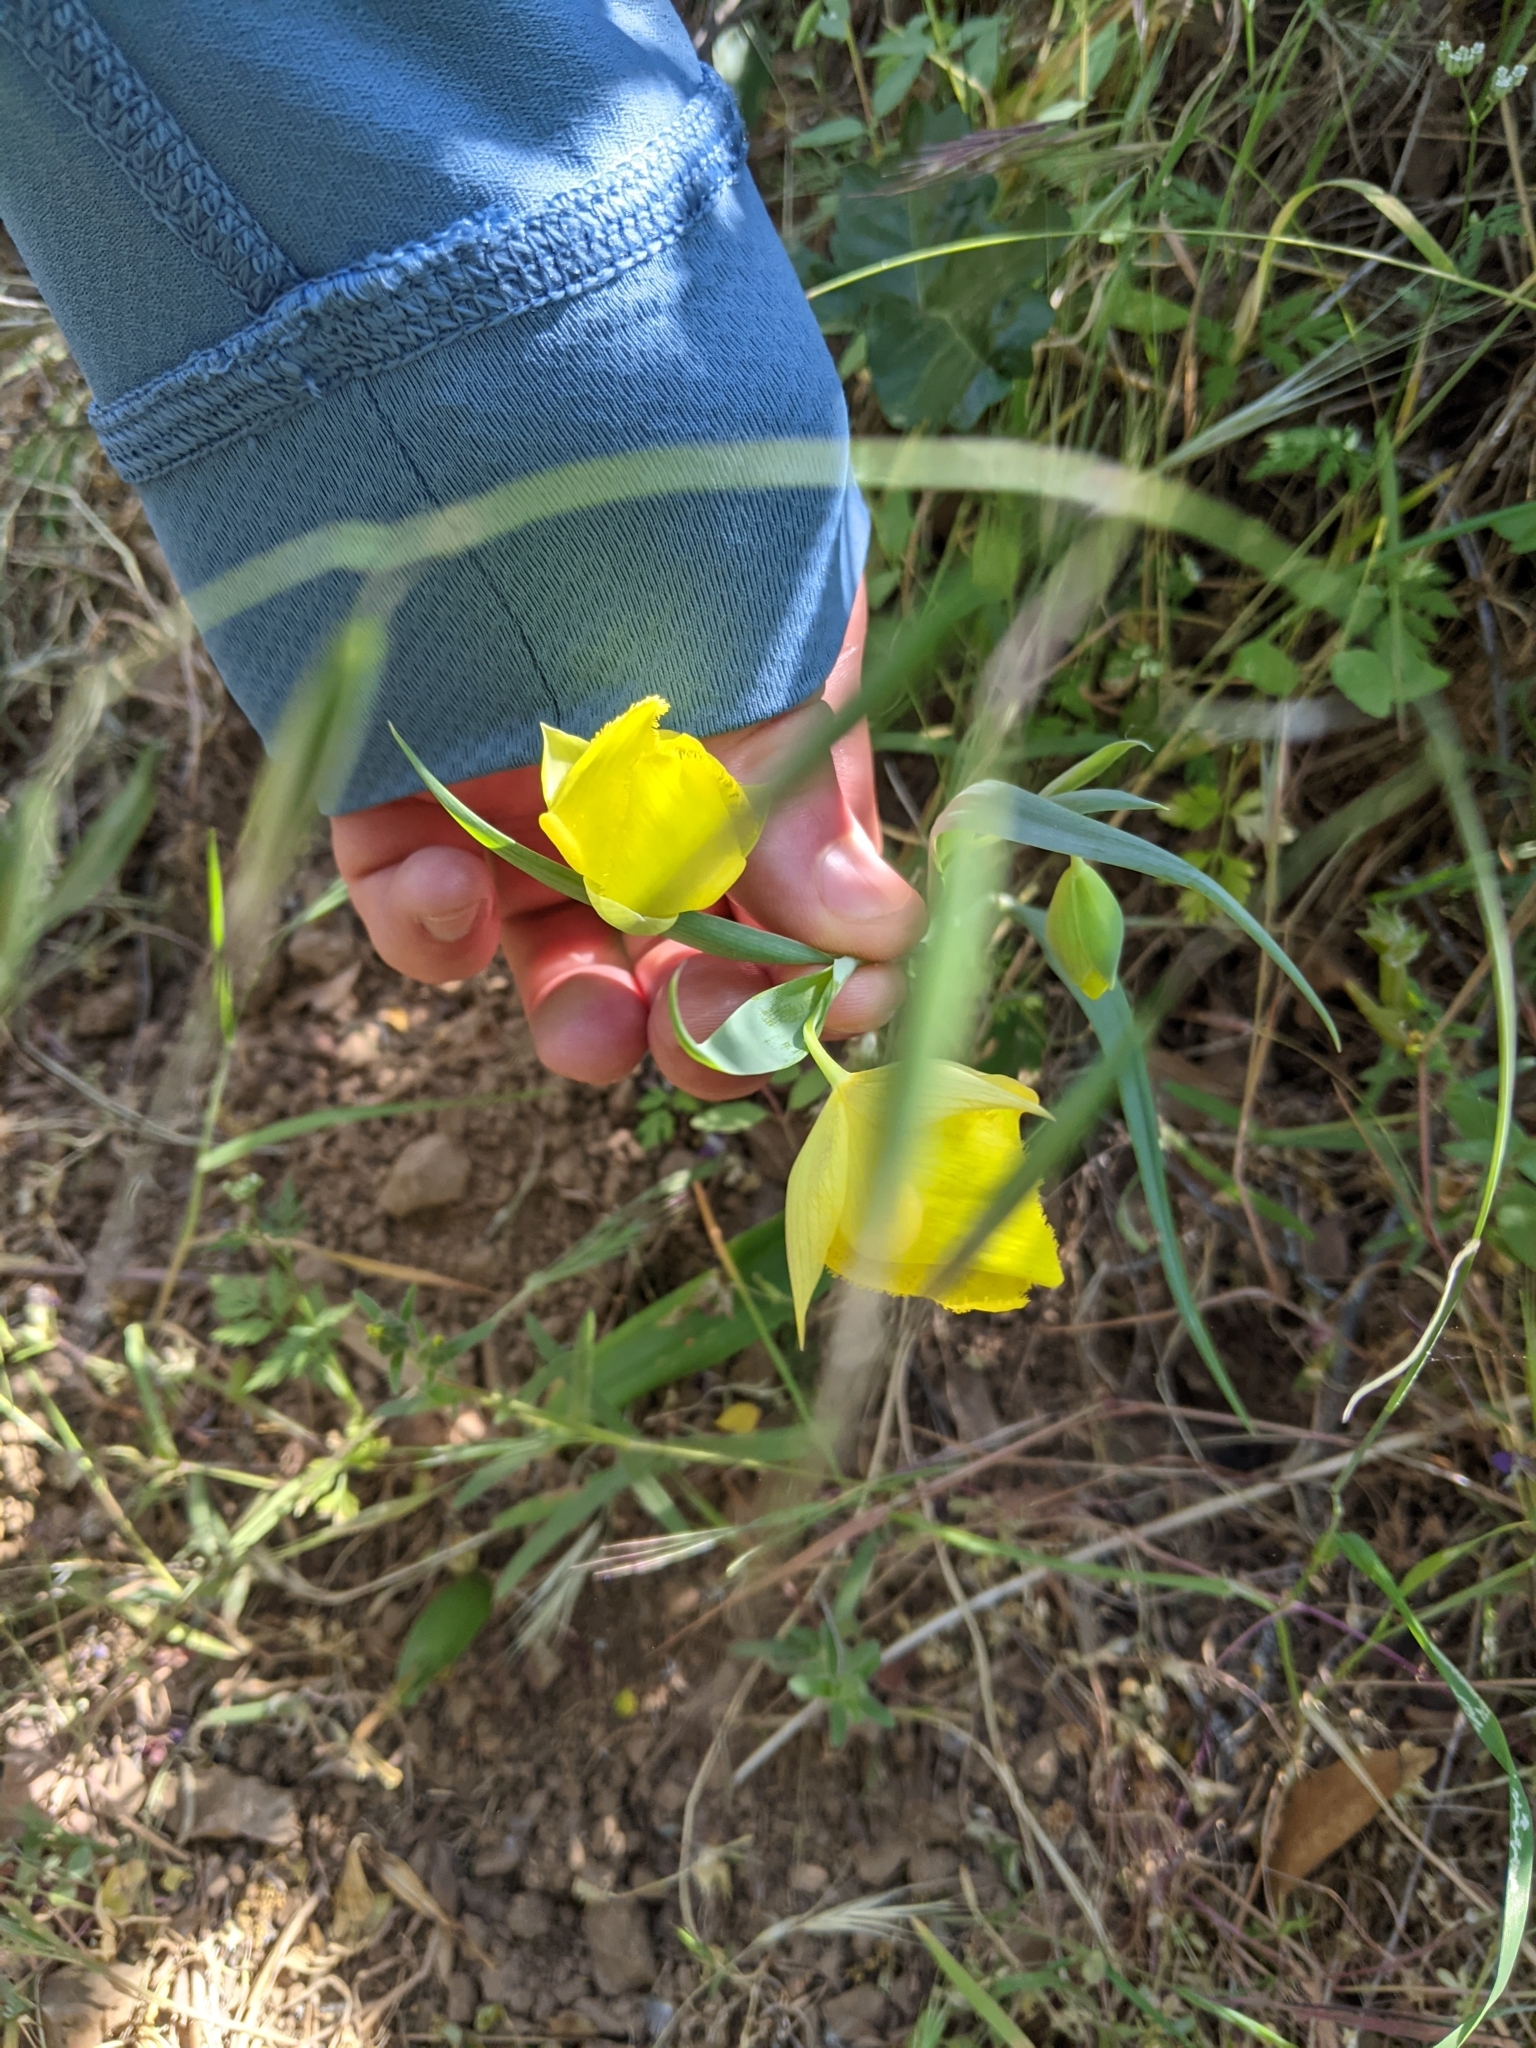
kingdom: Plantae
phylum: Tracheophyta
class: Liliopsida
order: Liliales
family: Liliaceae
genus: Calochortus
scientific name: Calochortus pulchellus
